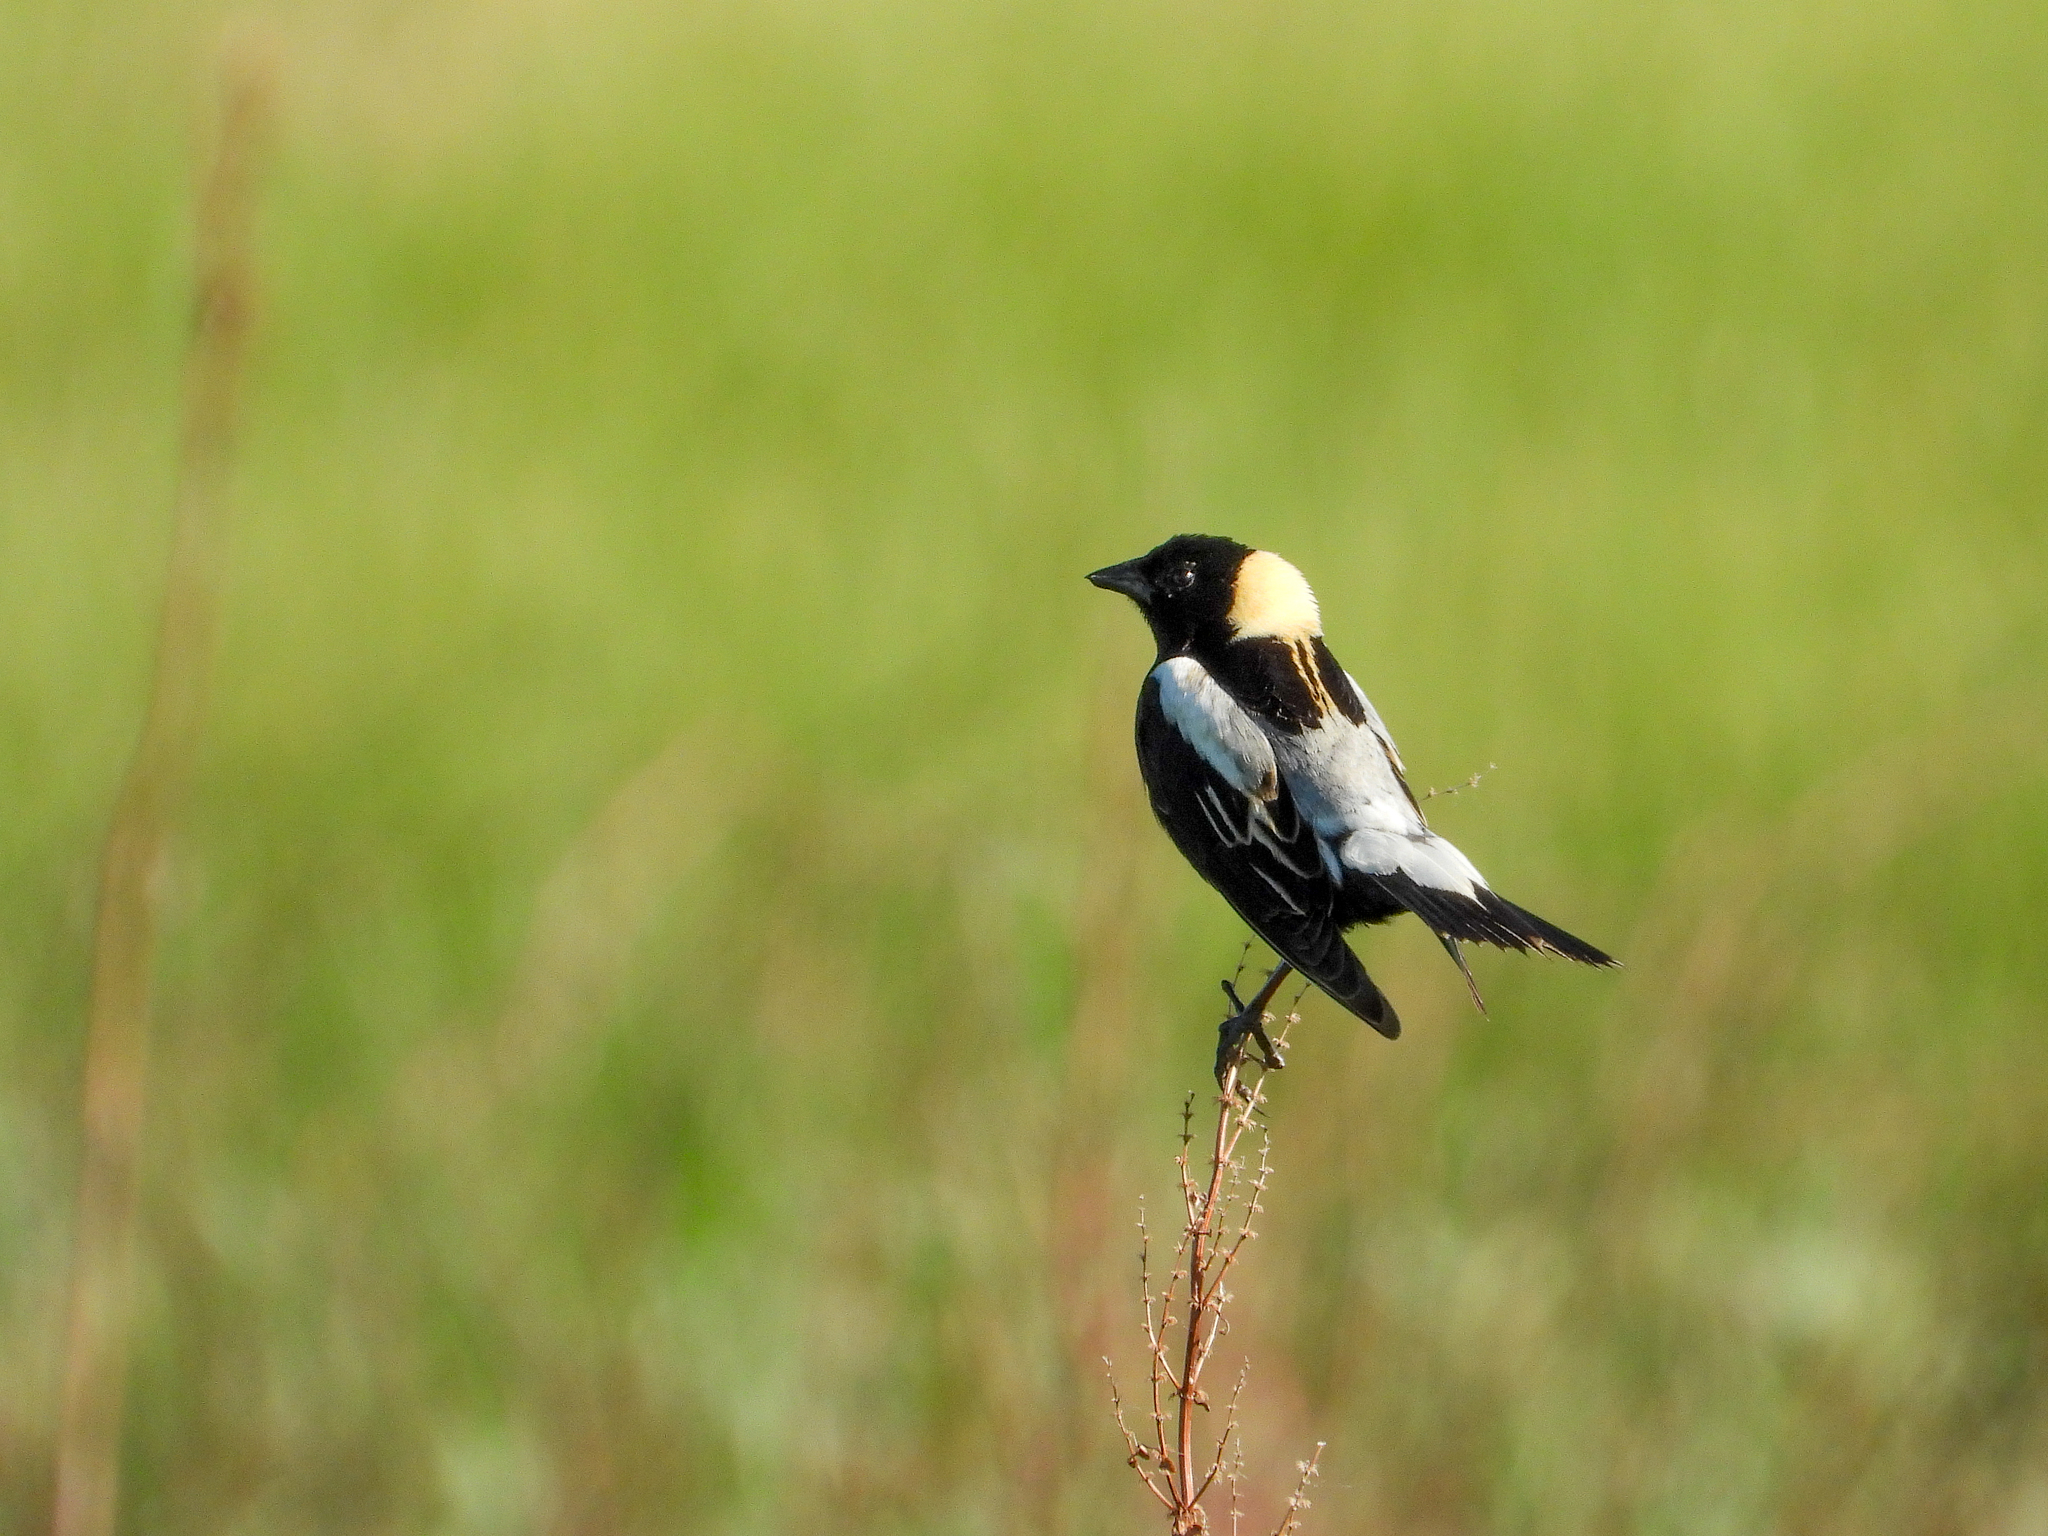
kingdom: Animalia
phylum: Chordata
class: Aves
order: Passeriformes
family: Icteridae
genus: Dolichonyx
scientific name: Dolichonyx oryzivorus
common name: Bobolink
